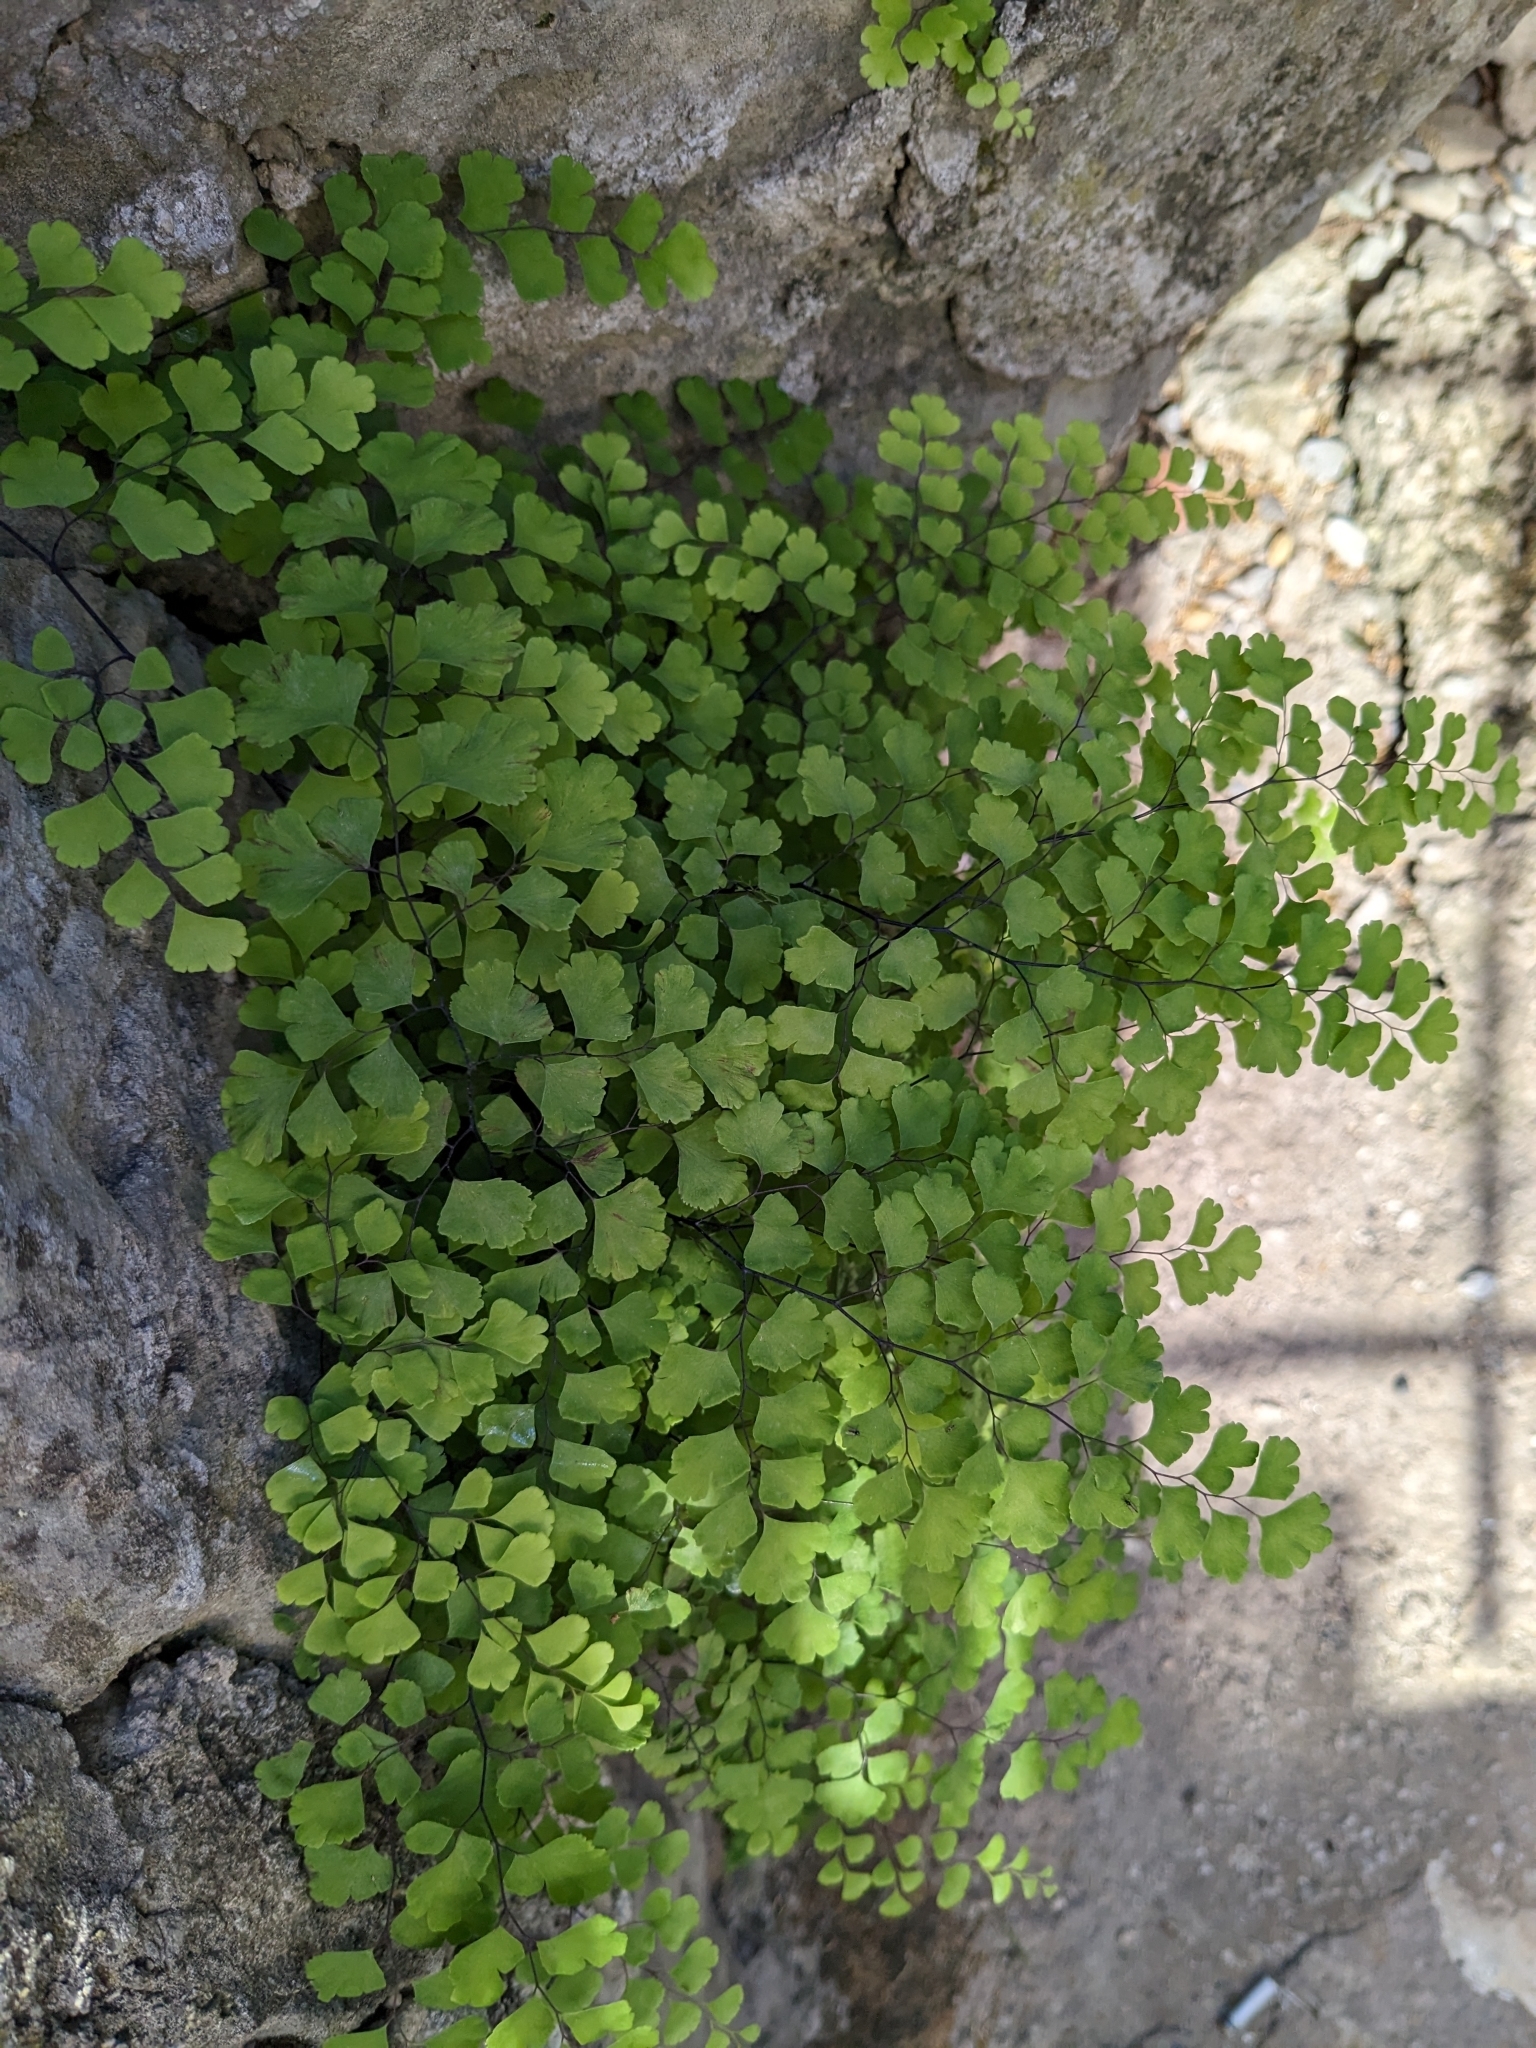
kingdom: Plantae
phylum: Tracheophyta
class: Polypodiopsida
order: Polypodiales
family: Pteridaceae
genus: Adiantum
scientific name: Adiantum capillus-veneris
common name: Maidenhair fern
